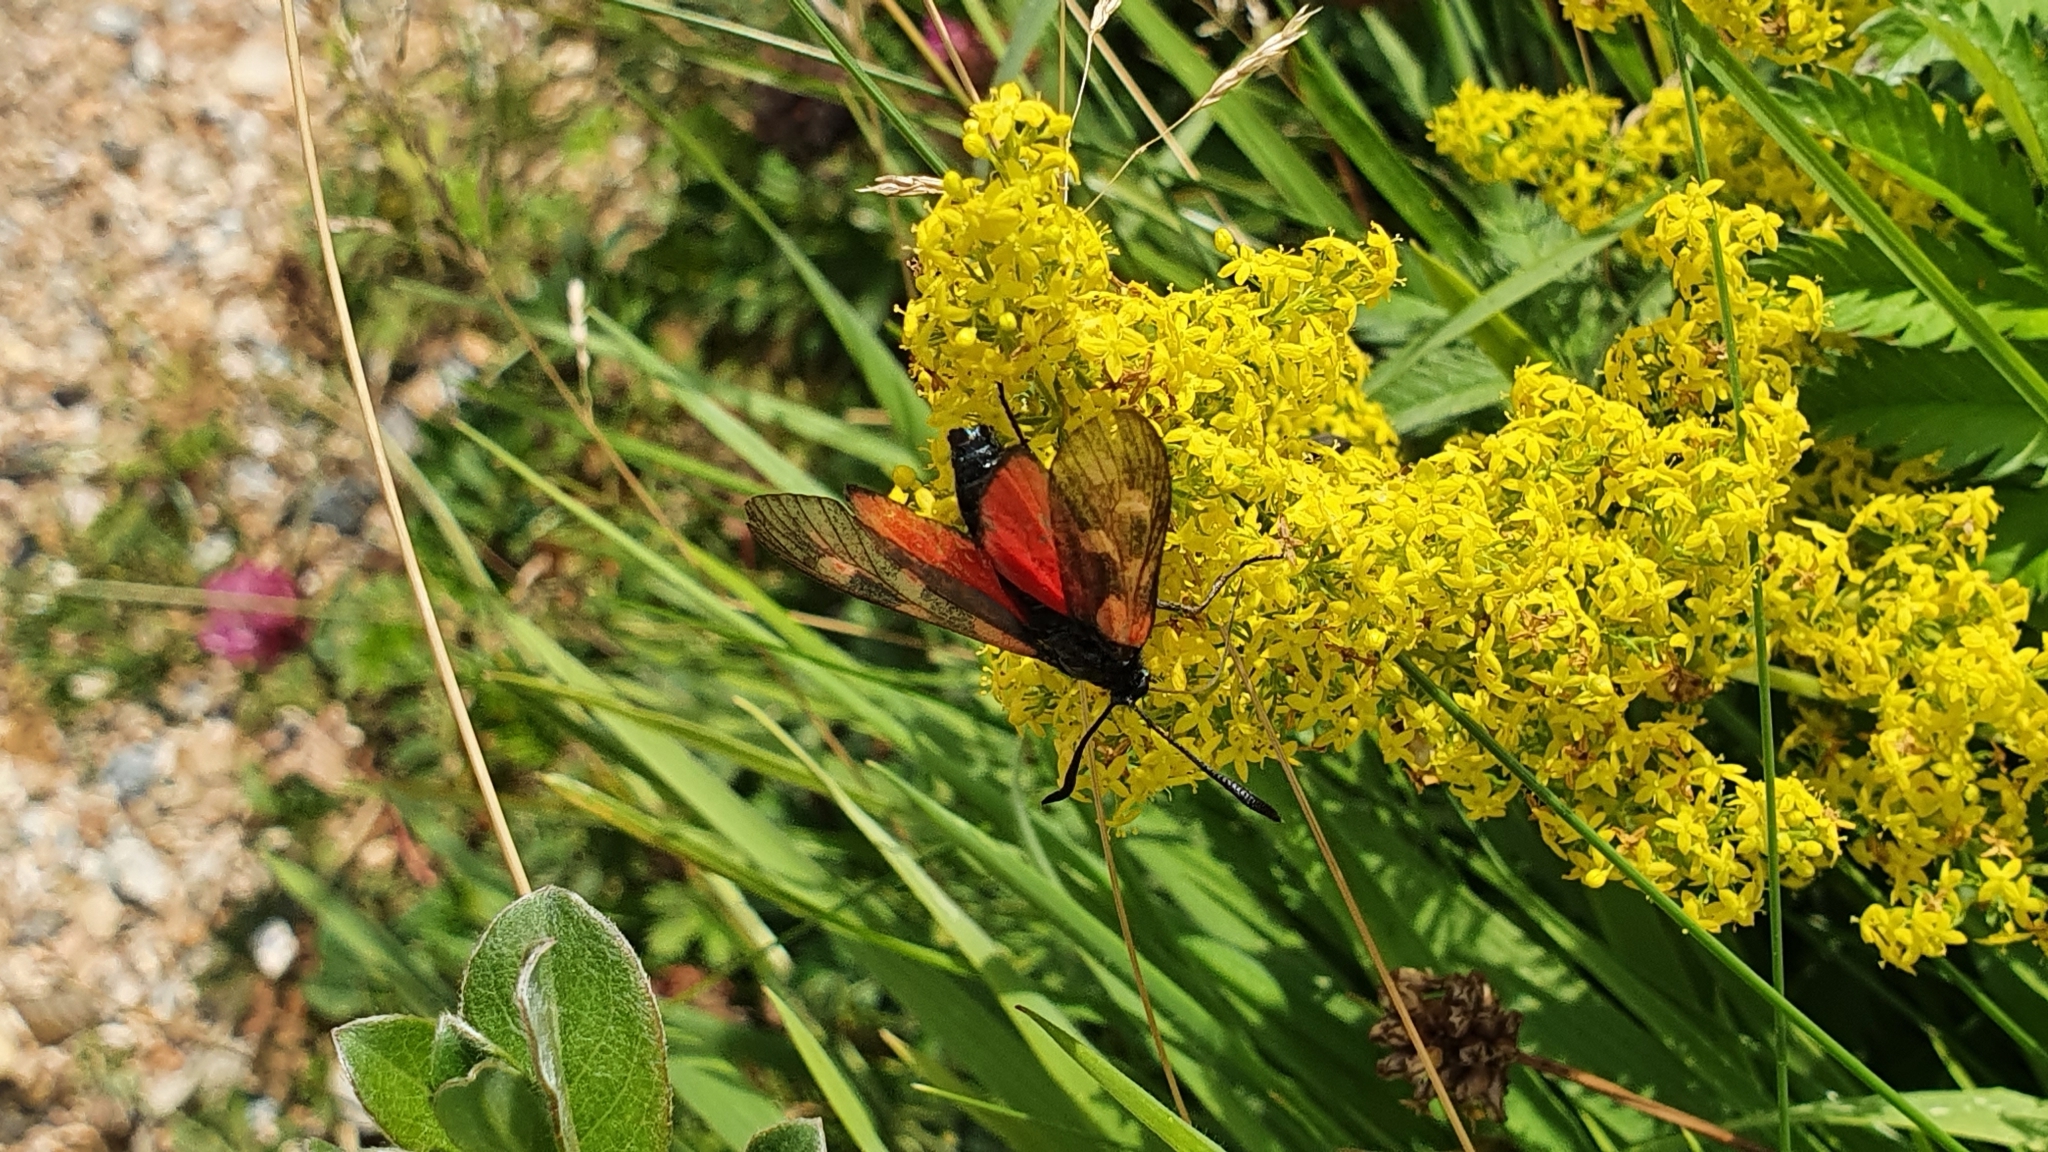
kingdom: Animalia
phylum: Arthropoda
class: Insecta
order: Lepidoptera
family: Zygaenidae
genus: Zygaena
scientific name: Zygaena filipendulae
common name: Six-spot burnet
